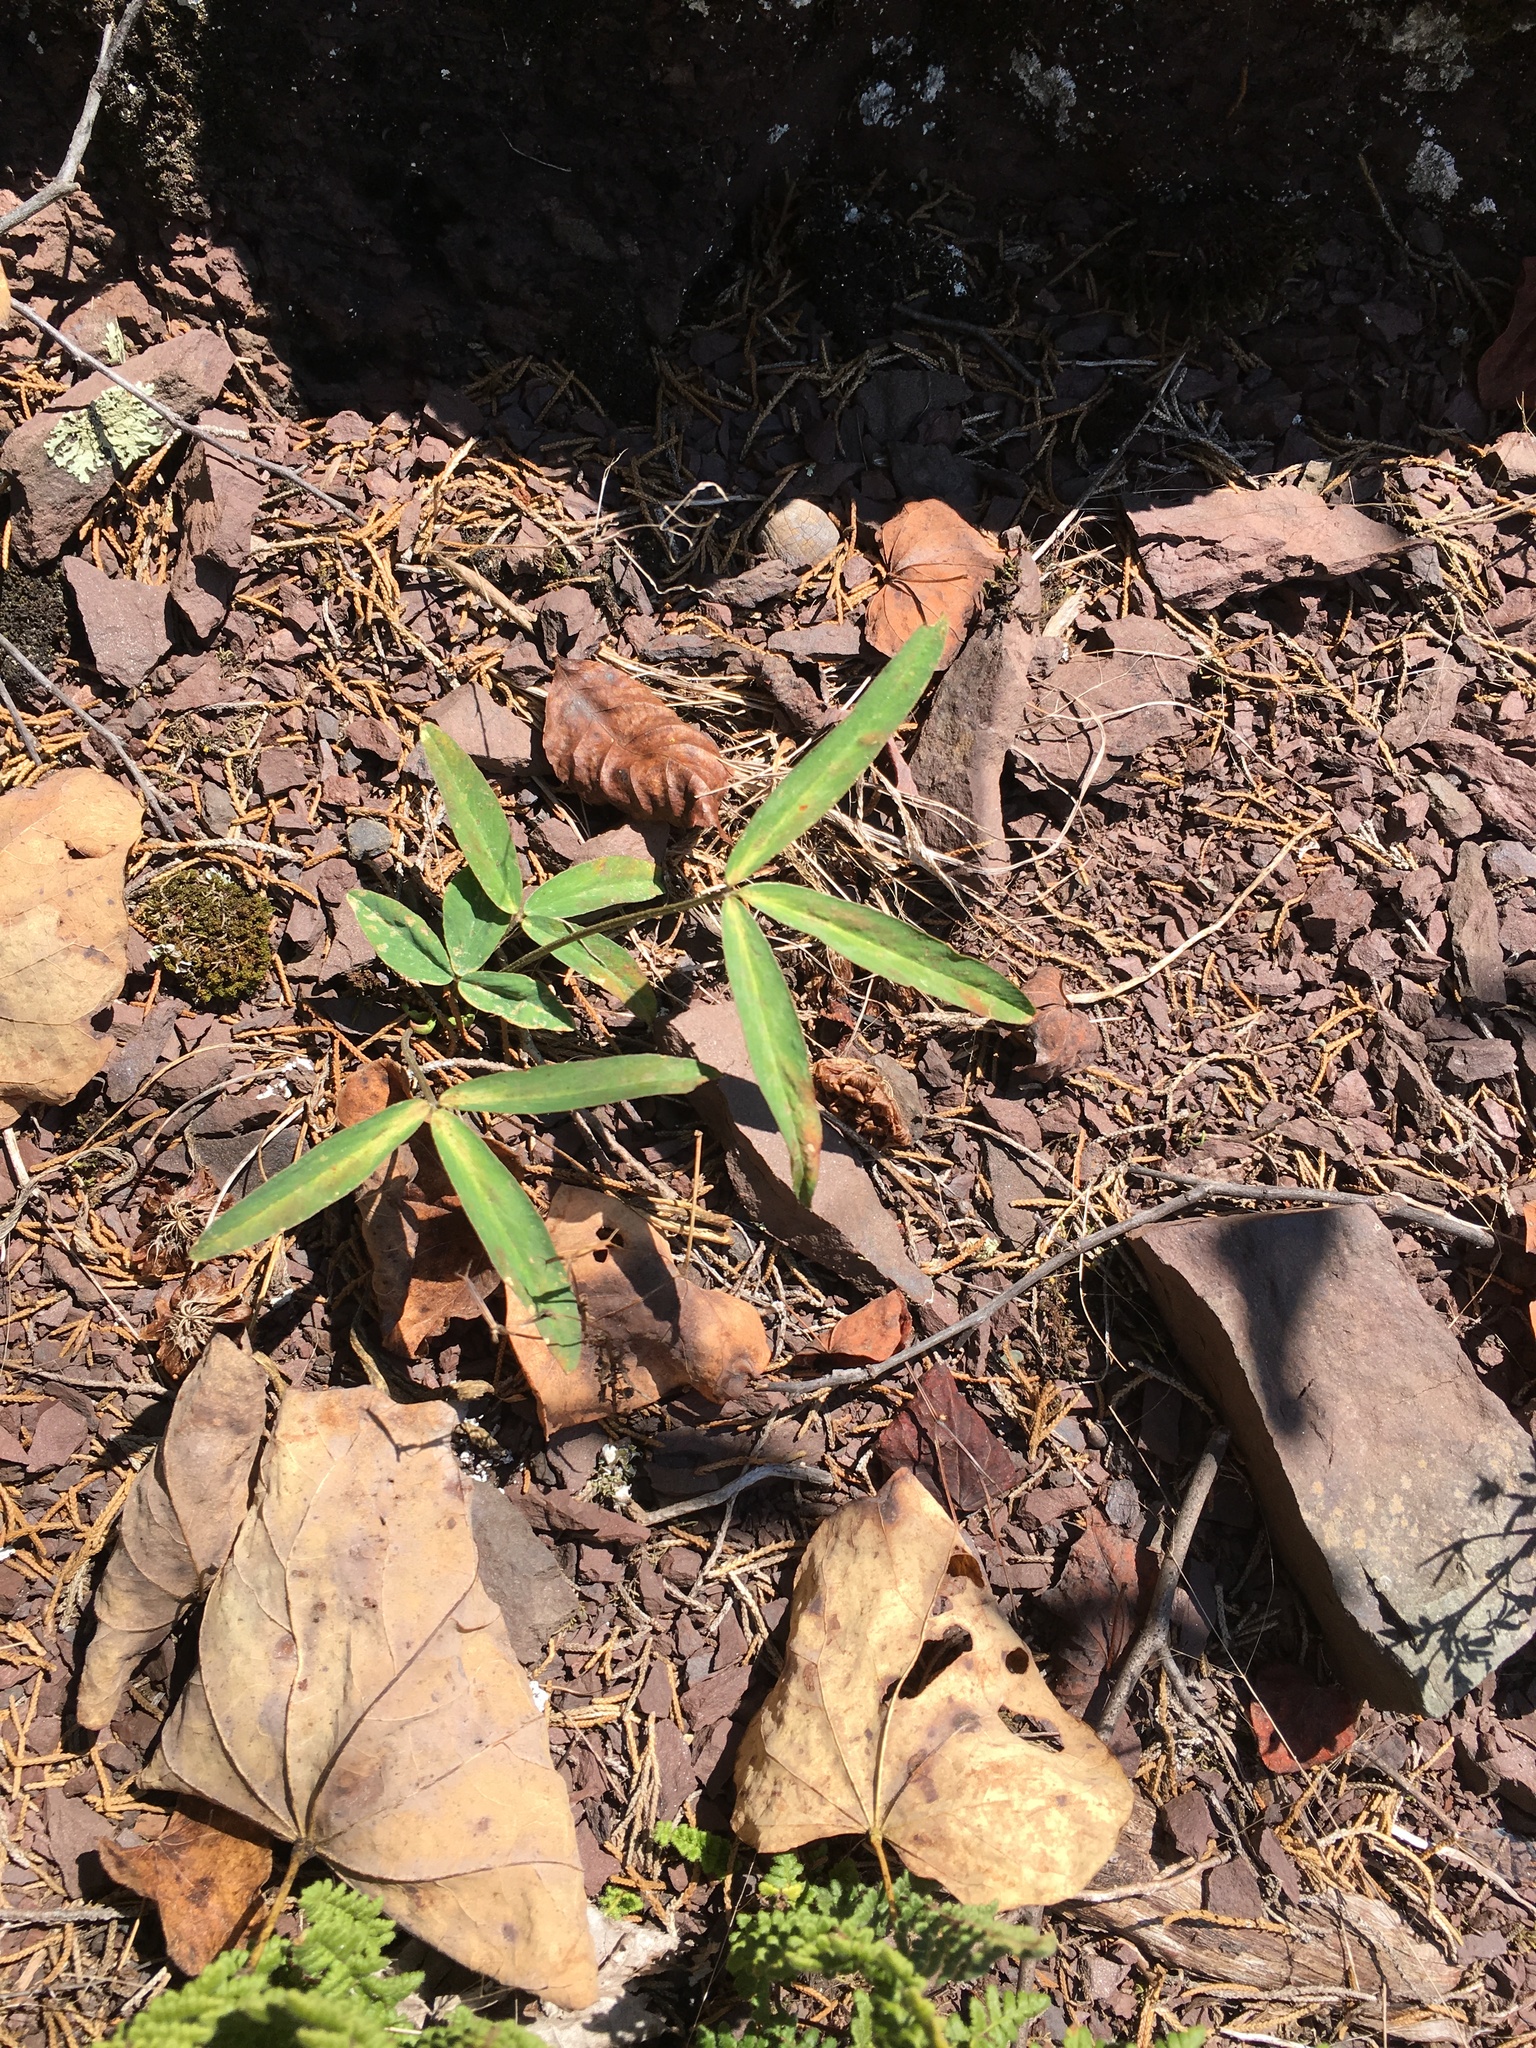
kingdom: Plantae
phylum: Tracheophyta
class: Magnoliopsida
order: Fabales
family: Fabaceae
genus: Trifolium
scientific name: Trifolium virginicum
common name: Kate's mountain clover
